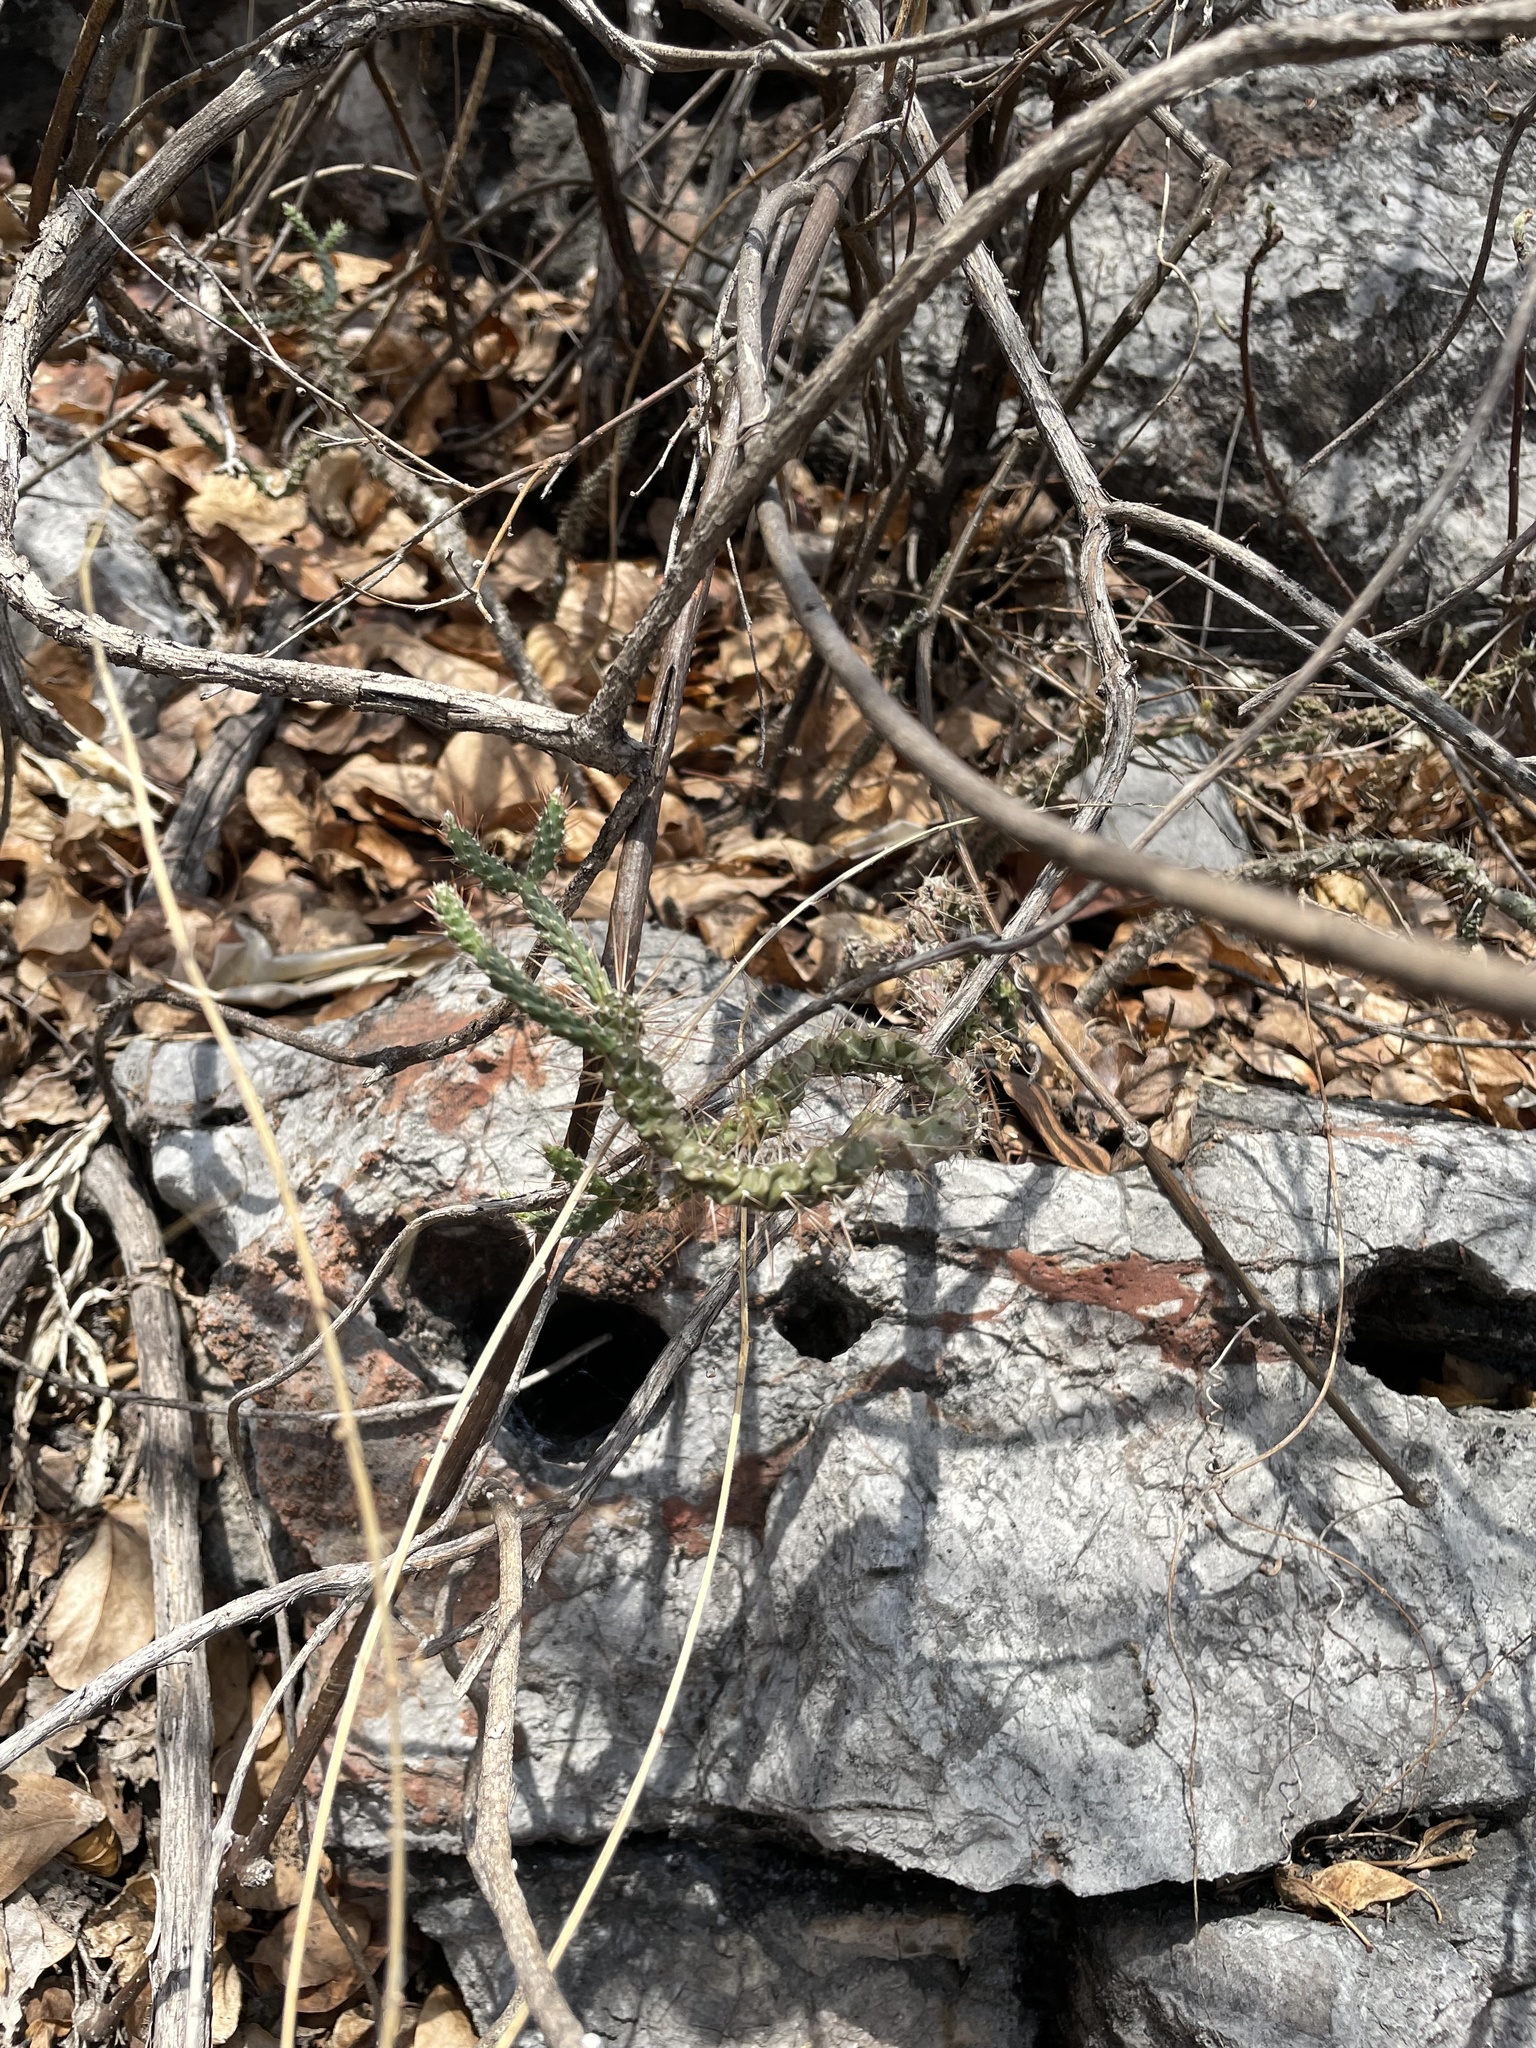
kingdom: Plantae
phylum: Tracheophyta
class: Magnoliopsida
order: Caryophyllales
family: Cactaceae
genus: Opuntia
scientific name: Opuntia pubescens
